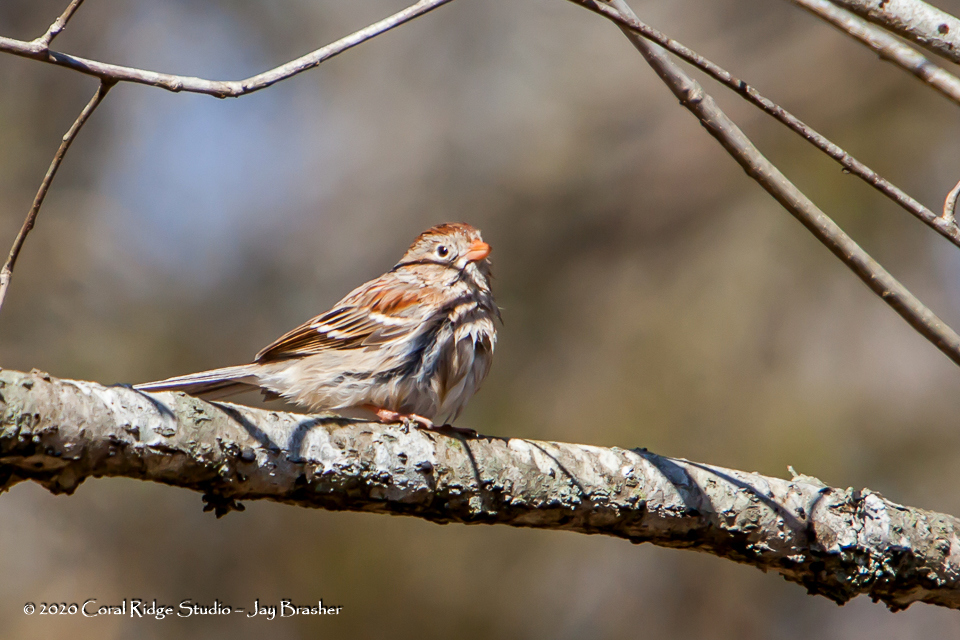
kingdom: Animalia
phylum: Chordata
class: Aves
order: Passeriformes
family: Passerellidae
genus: Spizella
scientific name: Spizella pusilla
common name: Field sparrow
